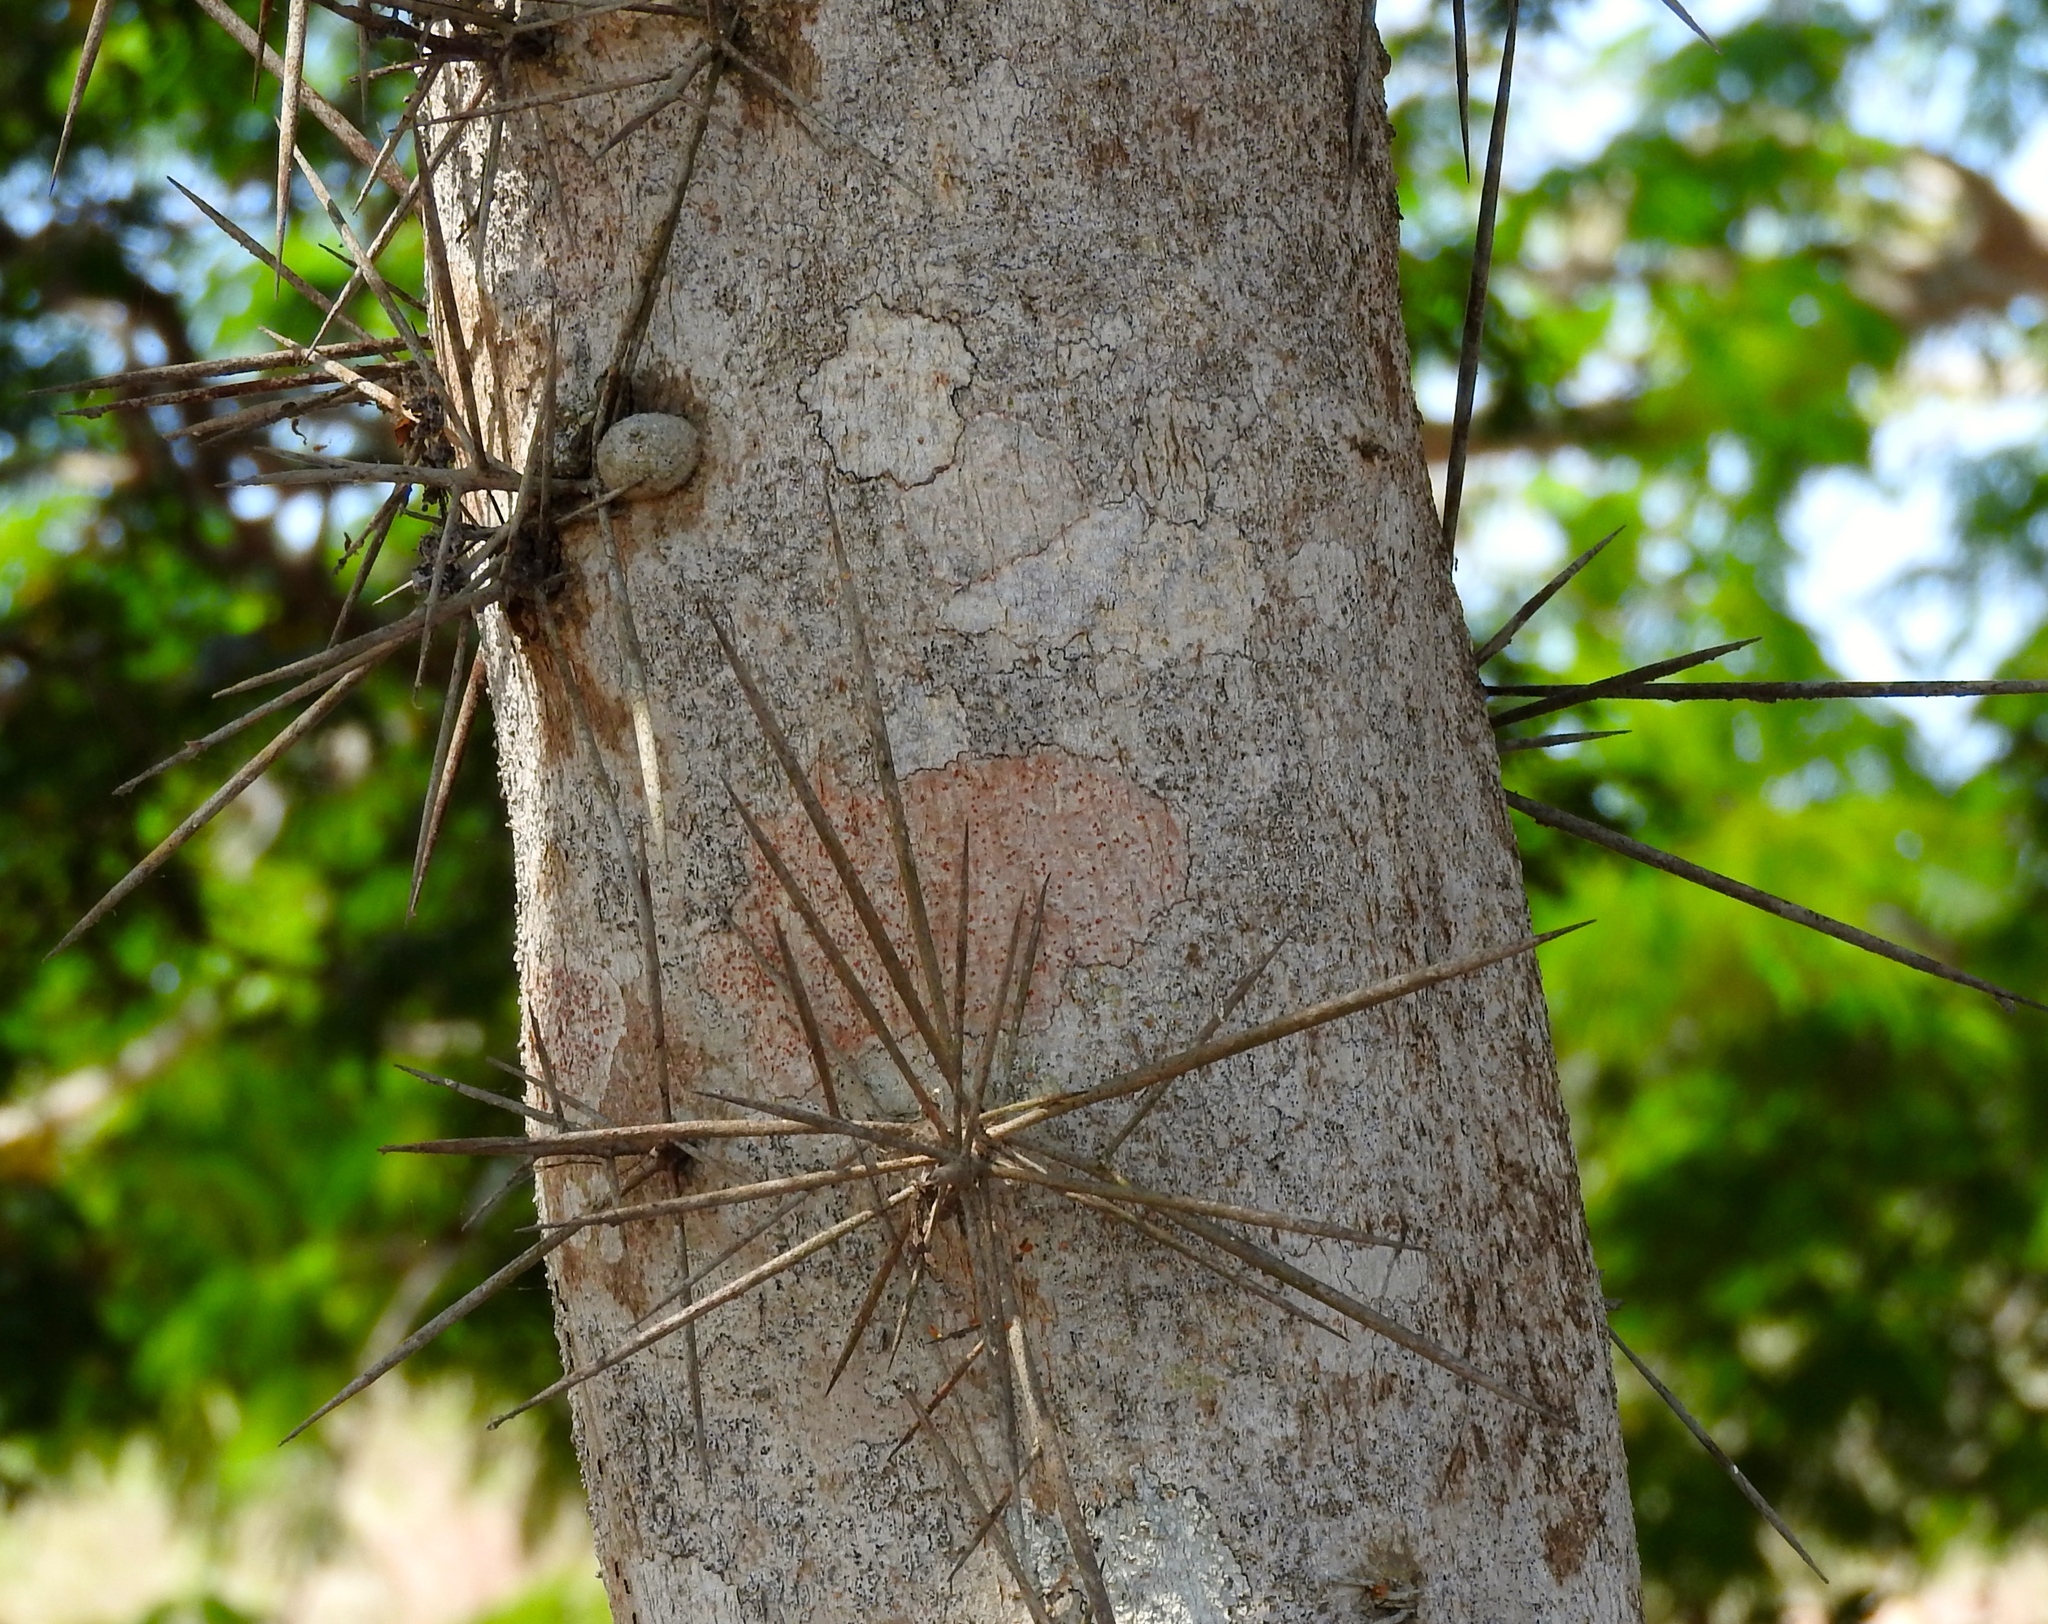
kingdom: Plantae
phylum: Tracheophyta
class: Magnoliopsida
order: Malpighiales
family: Salicaceae
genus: Xylosma
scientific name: Xylosma intermedia
